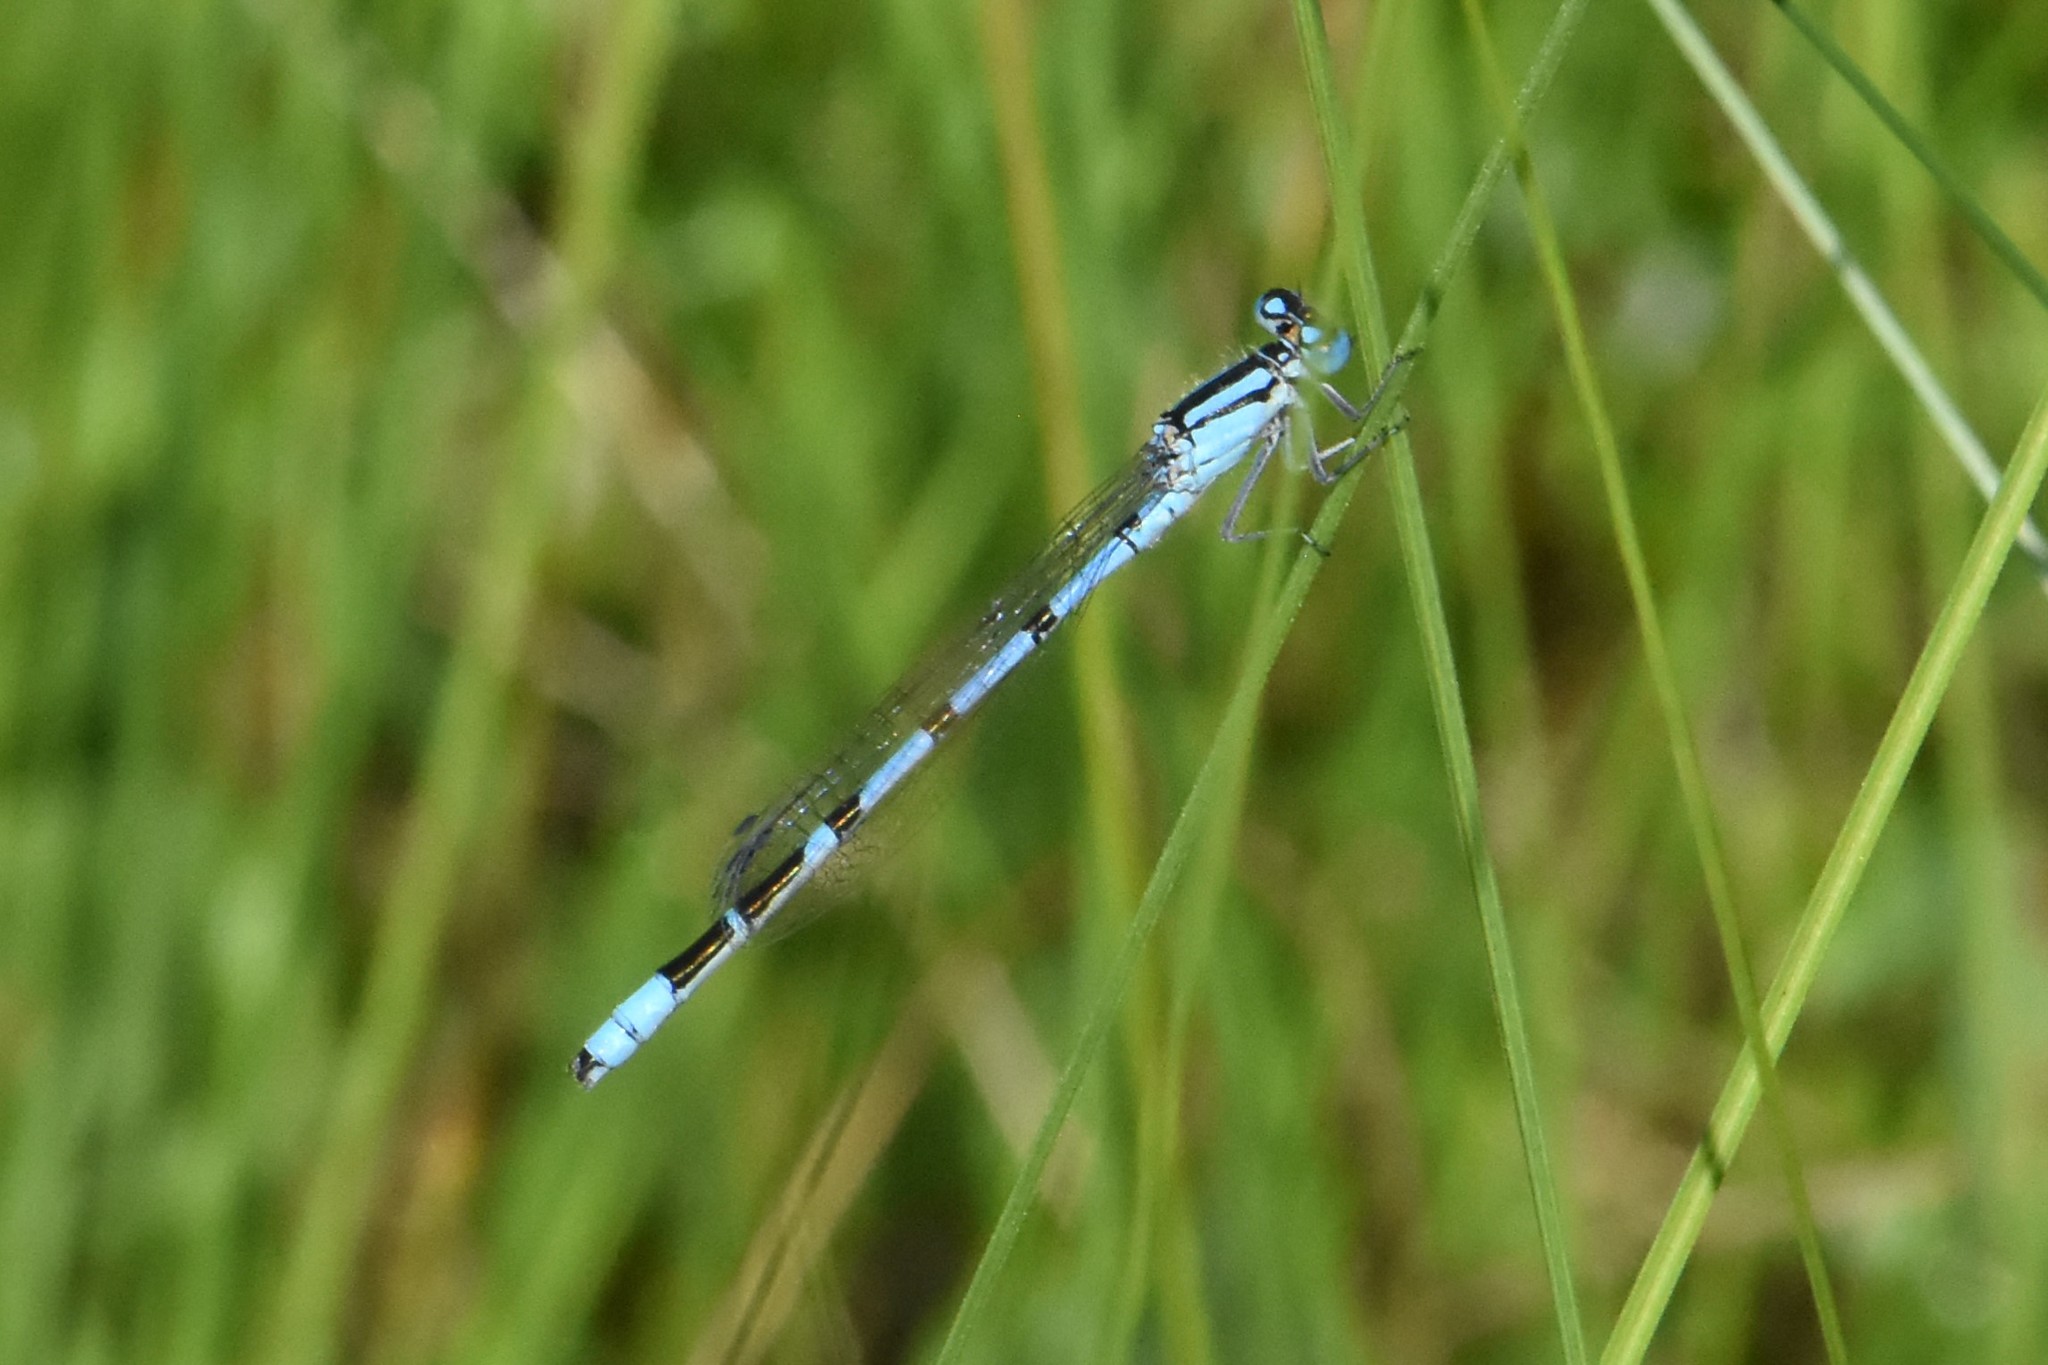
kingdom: Animalia
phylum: Arthropoda
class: Insecta
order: Odonata
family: Coenagrionidae
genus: Enallagma
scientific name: Enallagma cyathigerum
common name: Common blue damselfly
